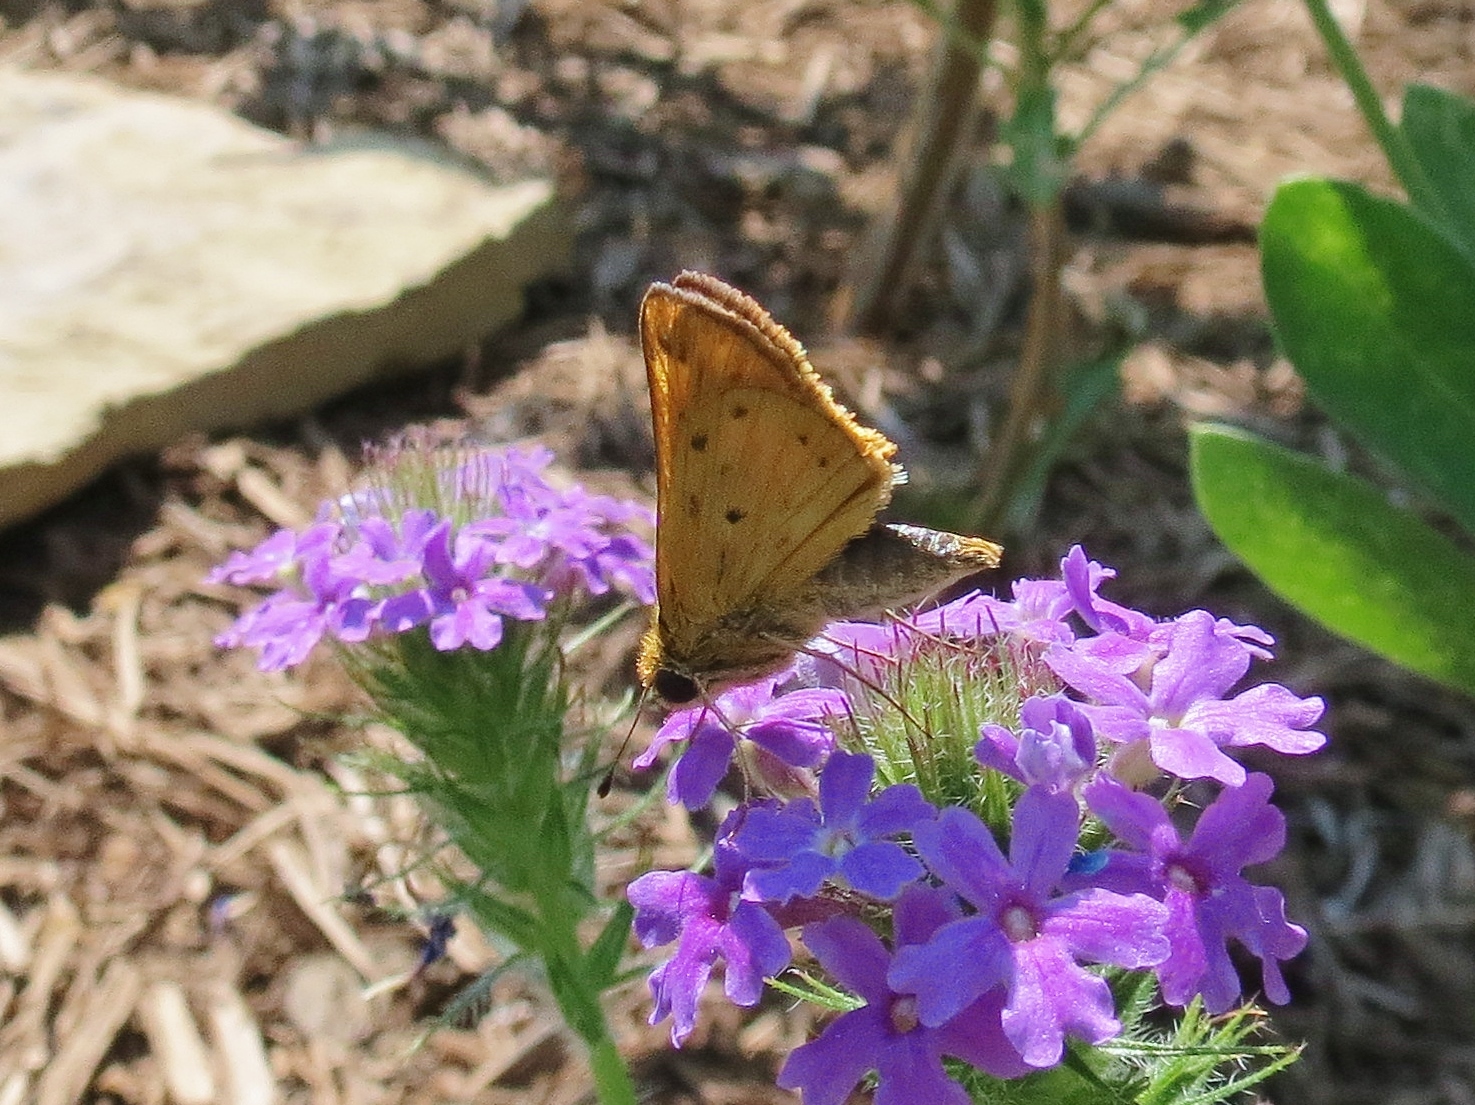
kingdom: Animalia
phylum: Arthropoda
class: Insecta
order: Lepidoptera
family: Hesperiidae
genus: Hylephila
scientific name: Hylephila phyleus
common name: Fiery skipper
